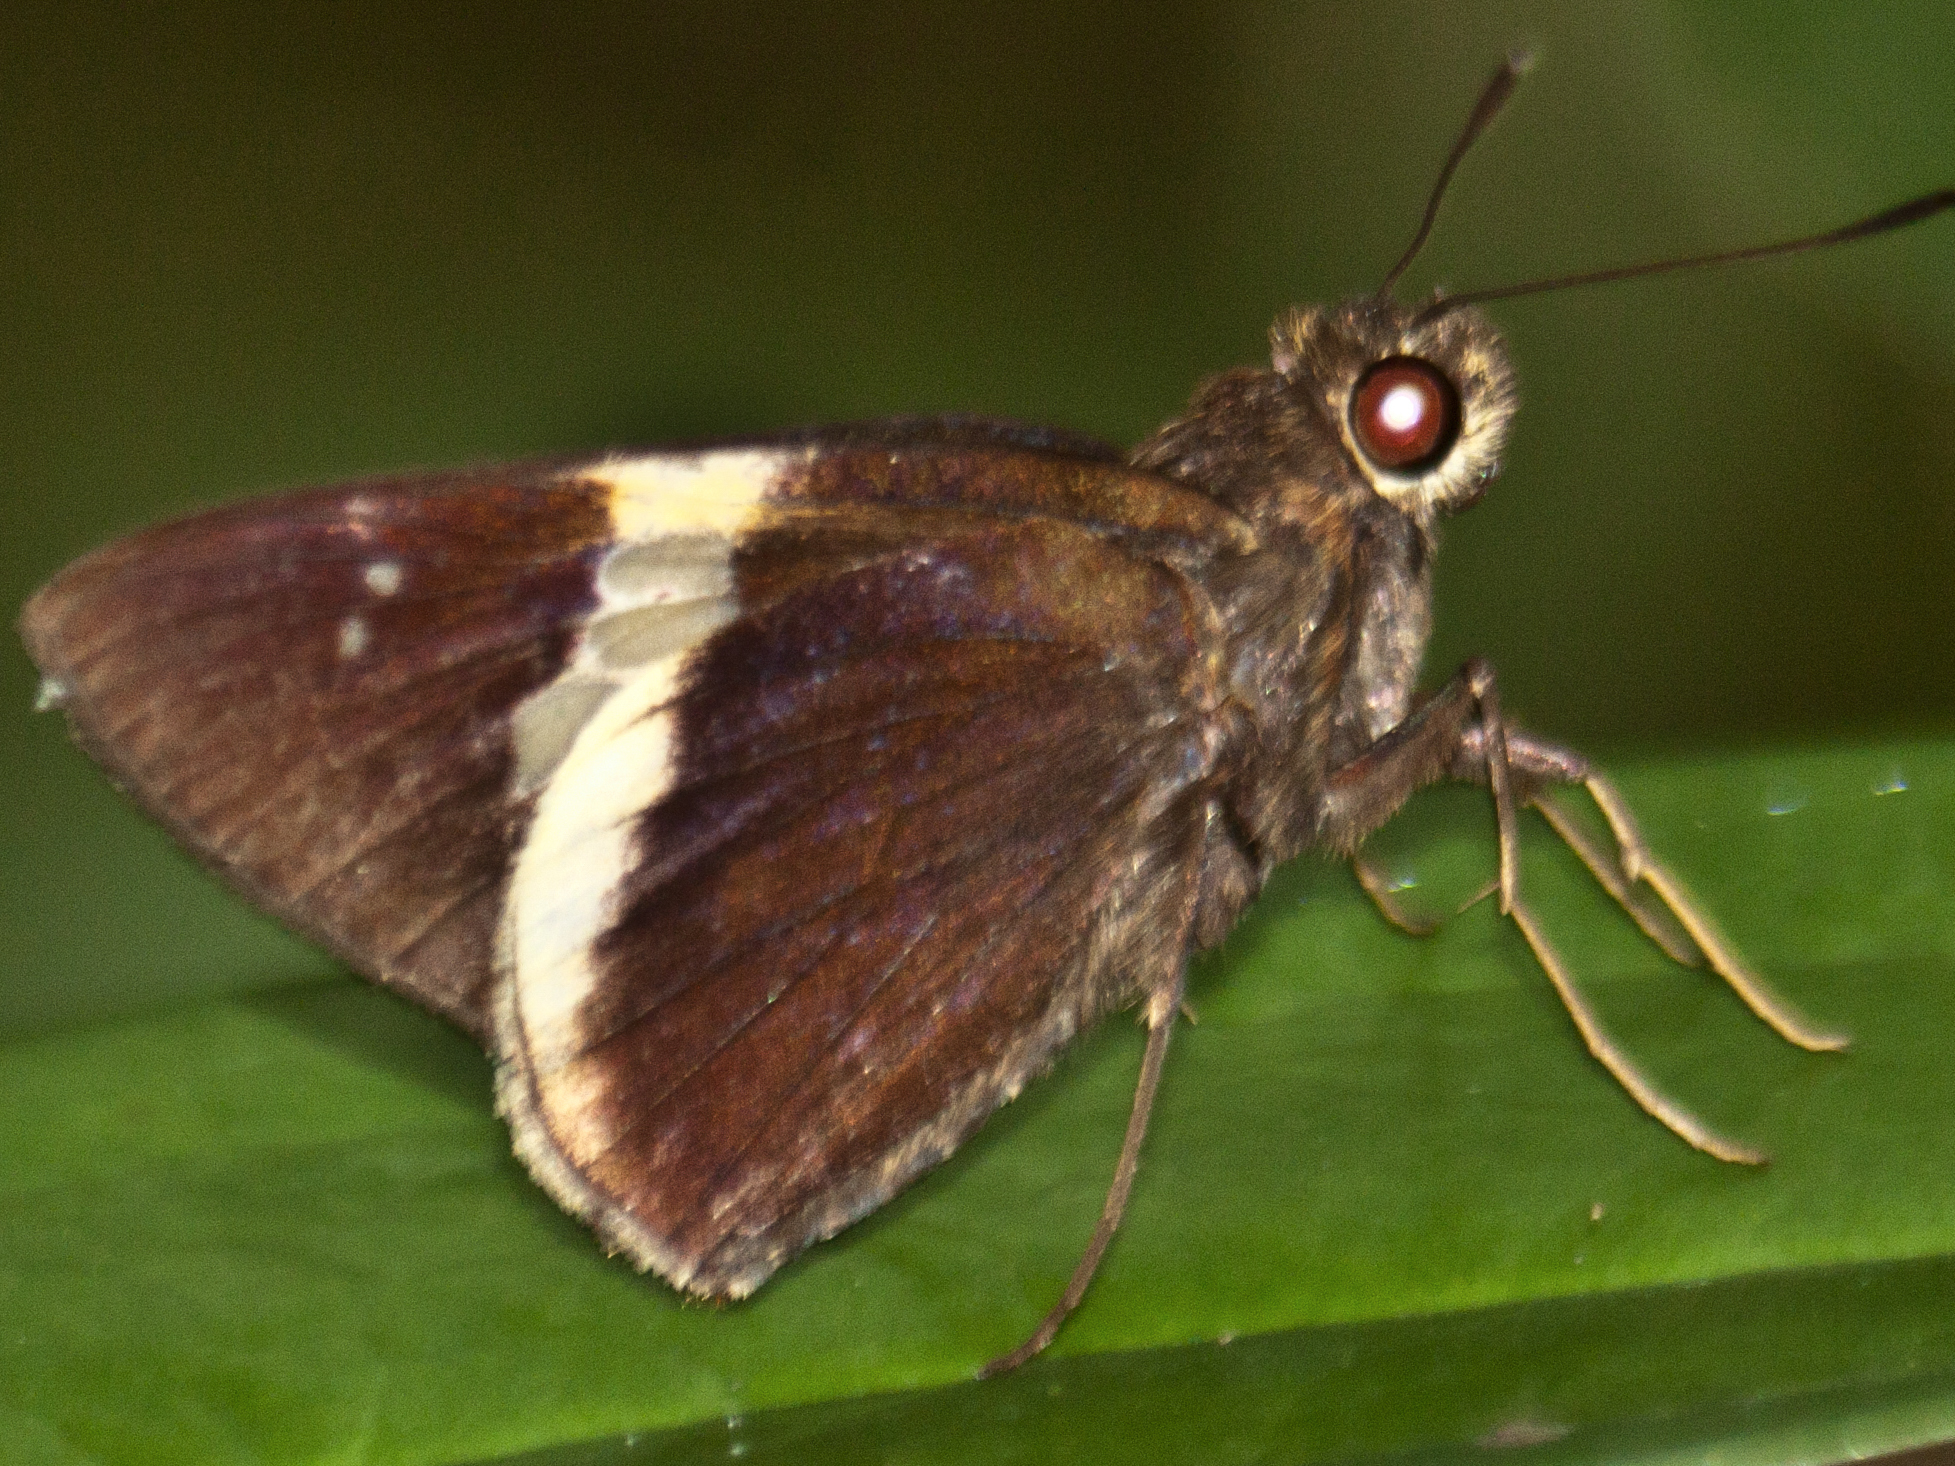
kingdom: Animalia
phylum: Arthropoda
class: Insecta
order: Lepidoptera
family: Hesperiidae
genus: Lotongus
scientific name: Lotongus calathus
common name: White-tipped palmer
